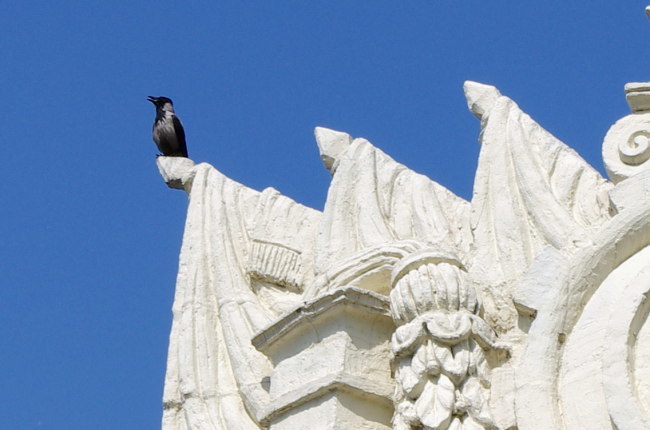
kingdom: Animalia
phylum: Chordata
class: Aves
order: Passeriformes
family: Corvidae
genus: Corvus
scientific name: Corvus cornix
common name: Hooded crow
